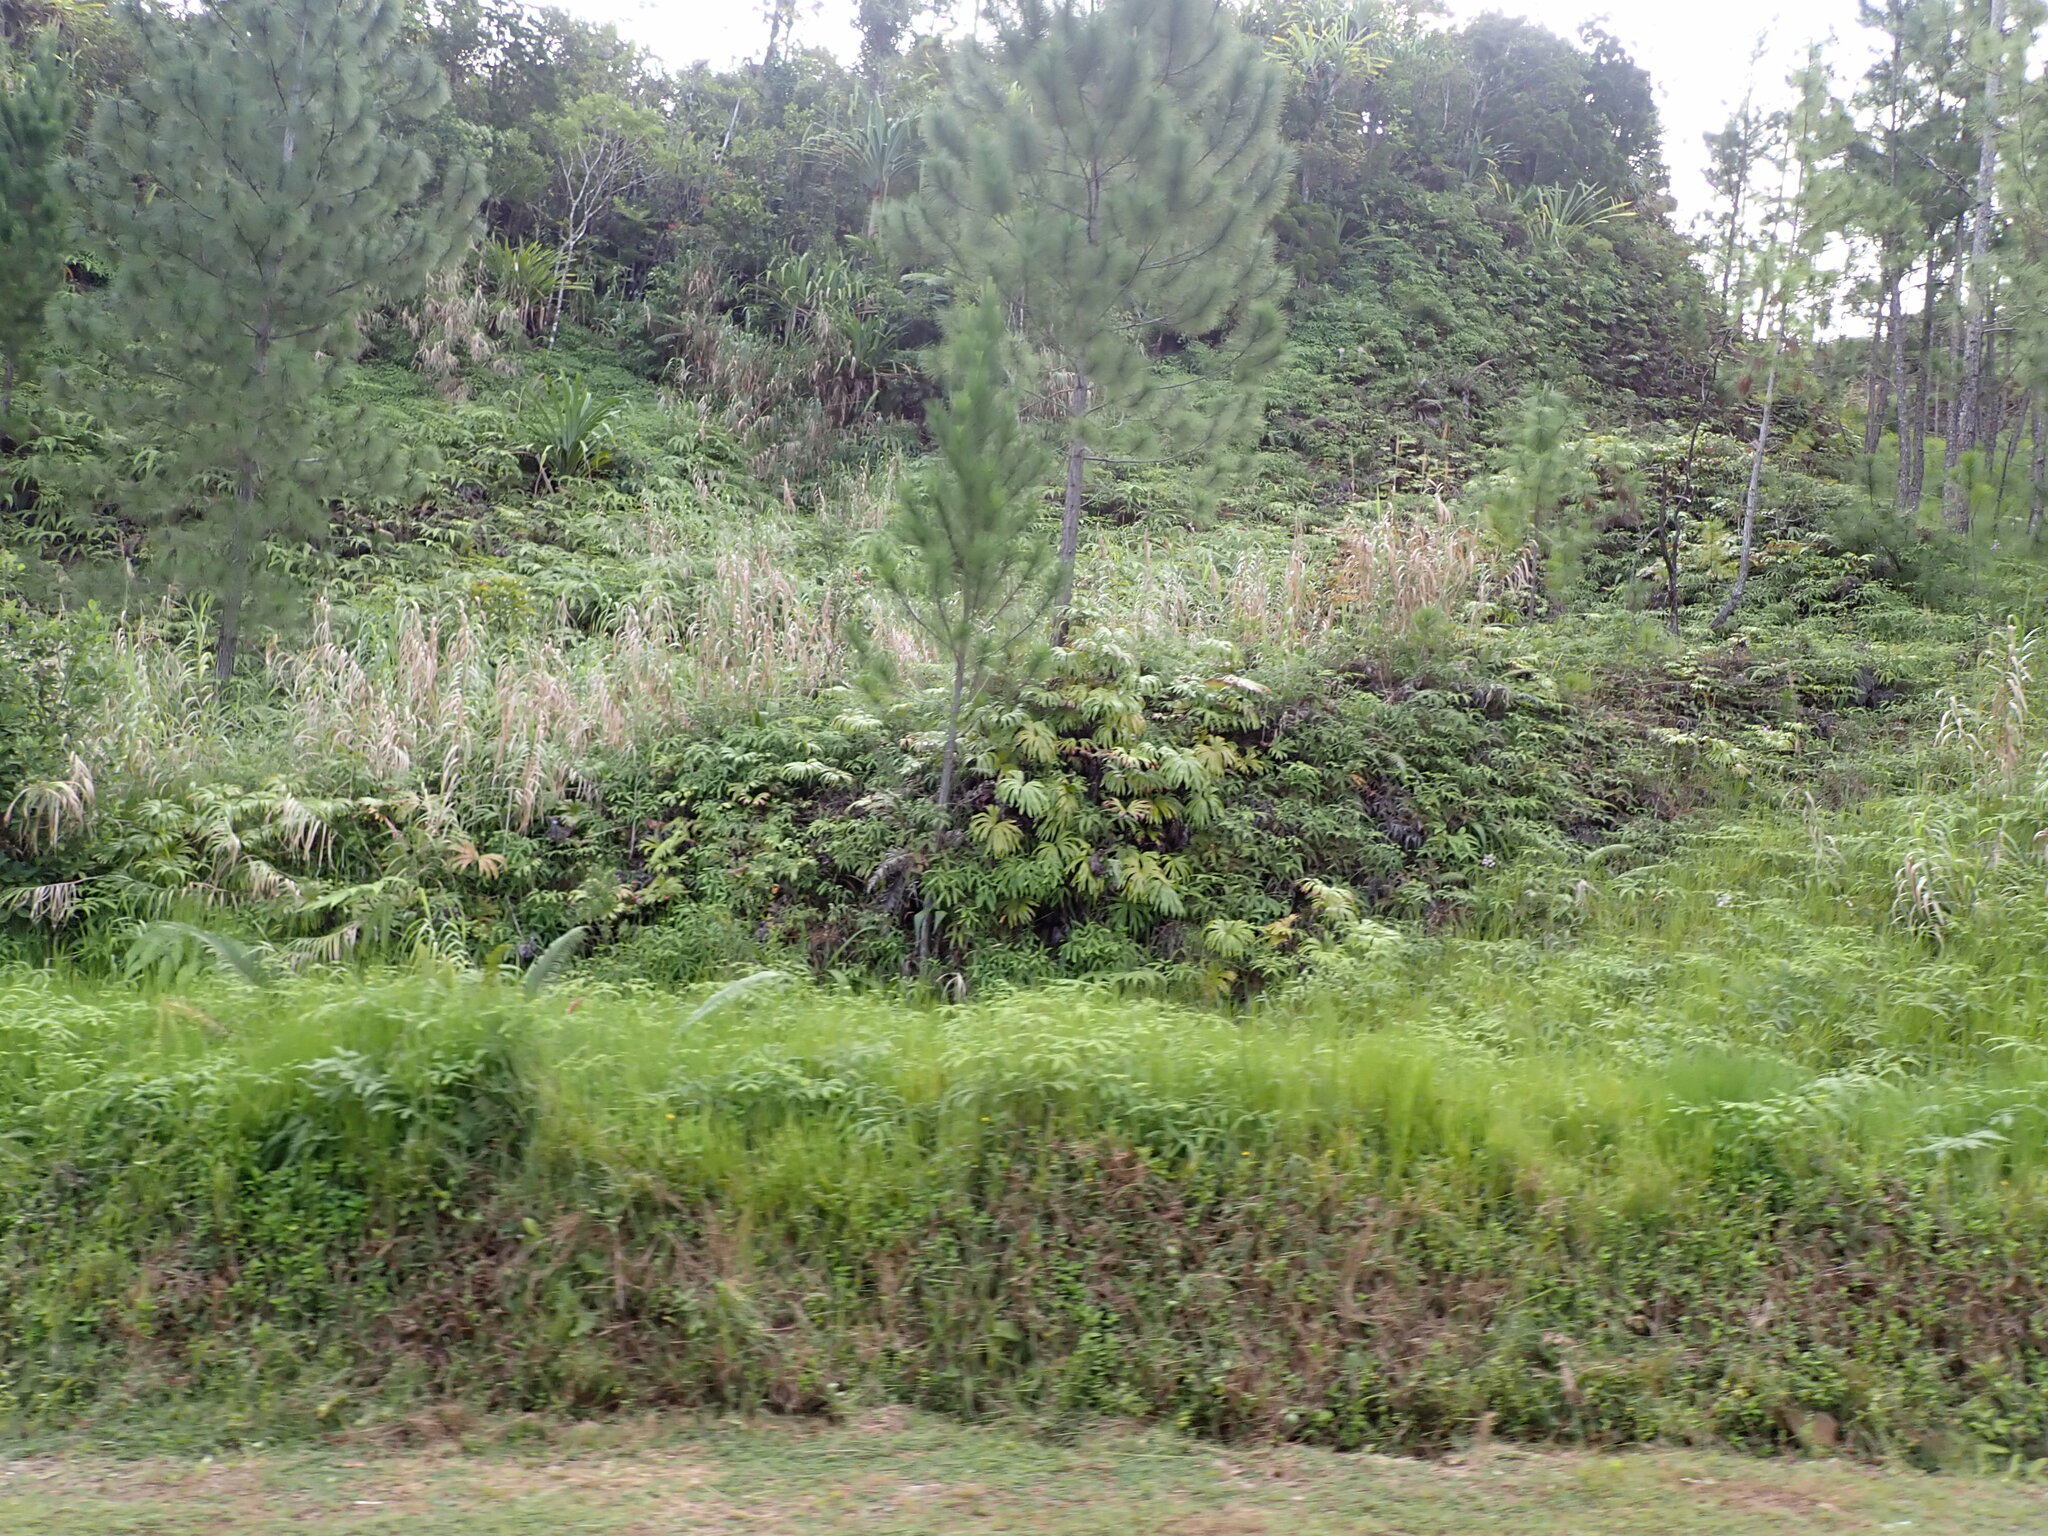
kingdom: Plantae
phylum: Tracheophyta
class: Polypodiopsida
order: Gleicheniales
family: Dipteridaceae
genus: Dipteris
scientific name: Dipteris conjugata
